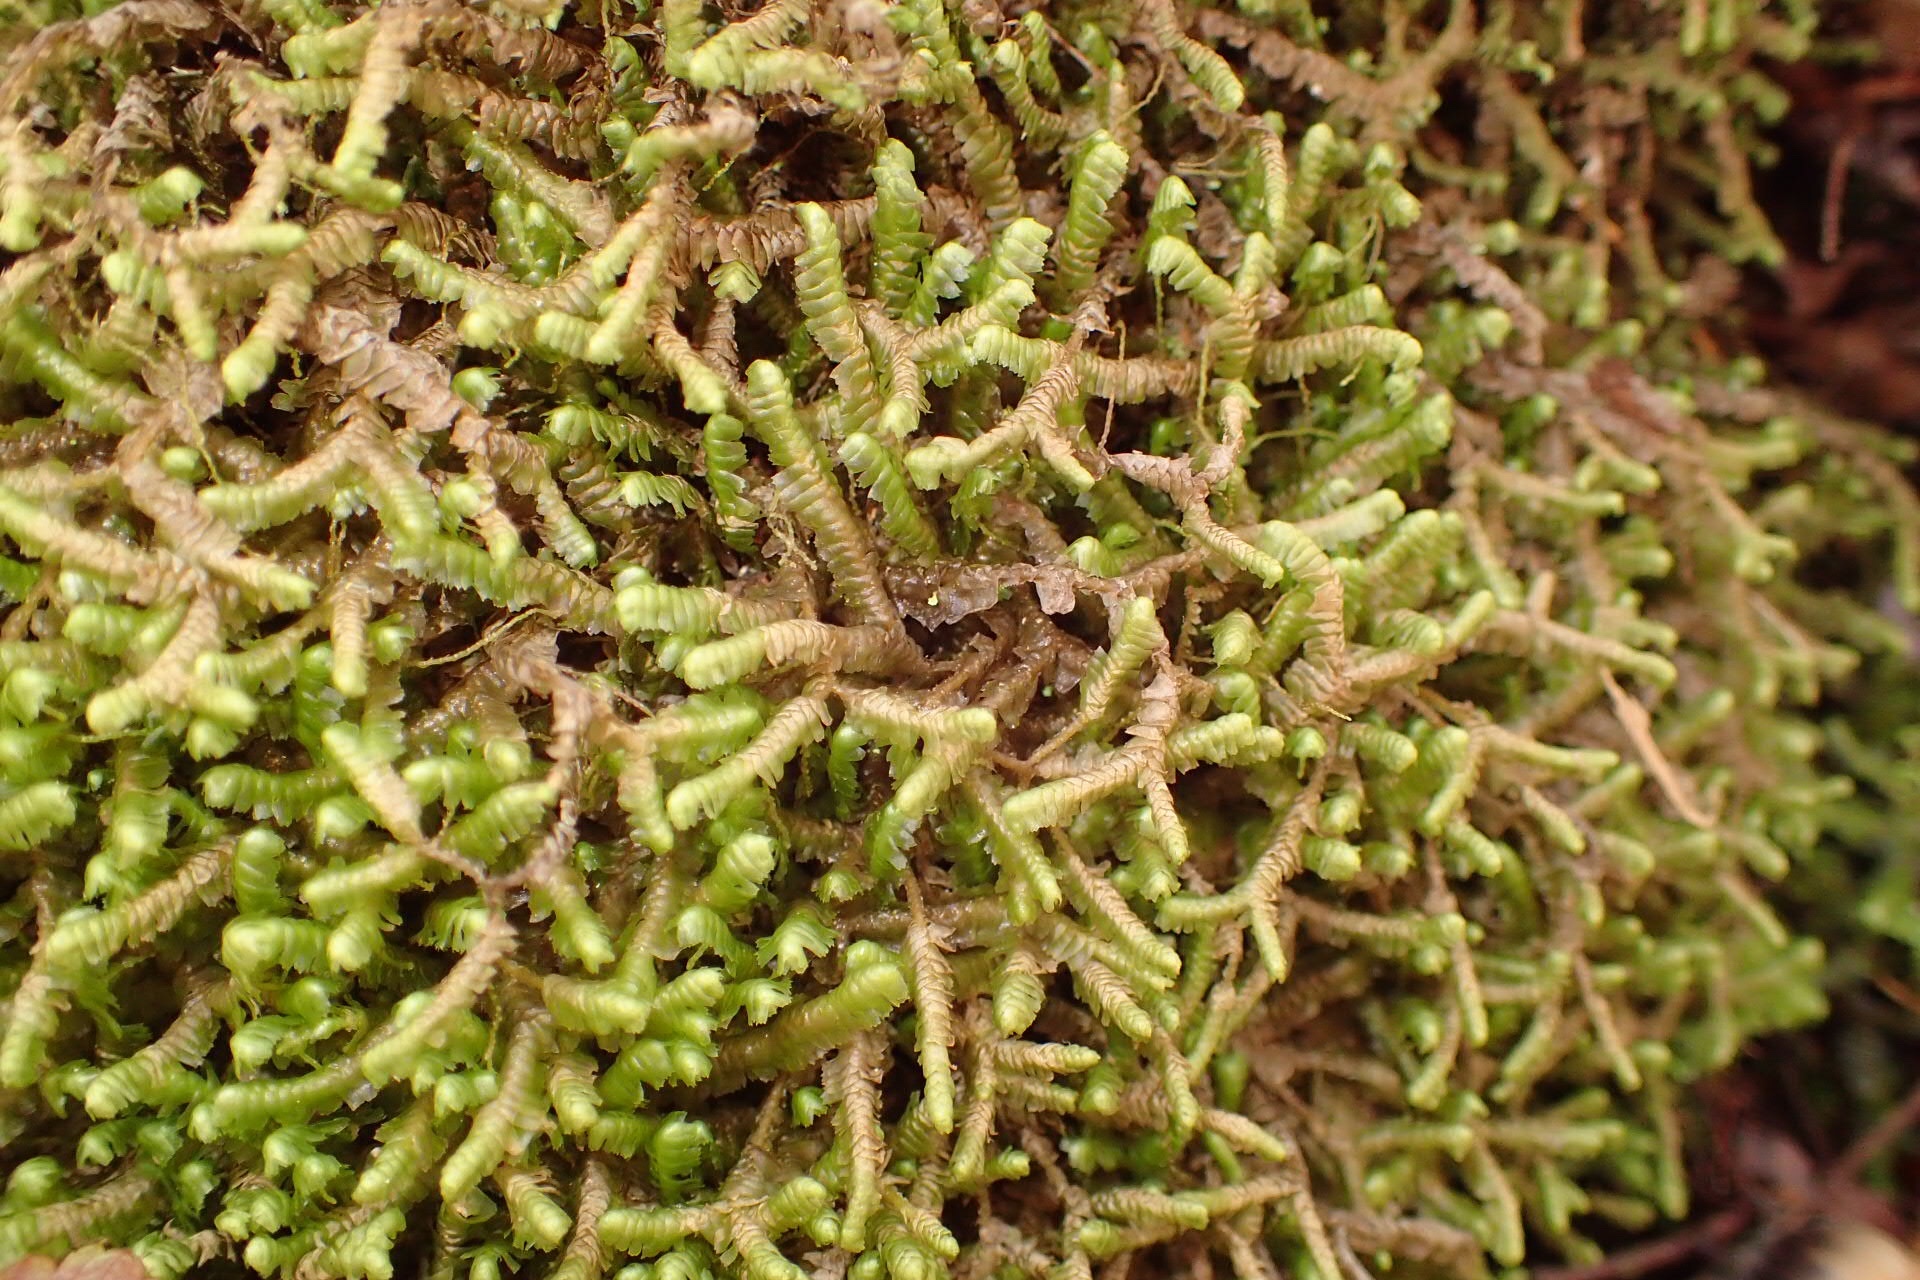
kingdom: Plantae
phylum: Marchantiophyta
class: Jungermanniopsida
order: Jungermanniales
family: Lepidoziaceae
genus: Bazzania
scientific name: Bazzania trilobata
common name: Three-lobed whipwort
